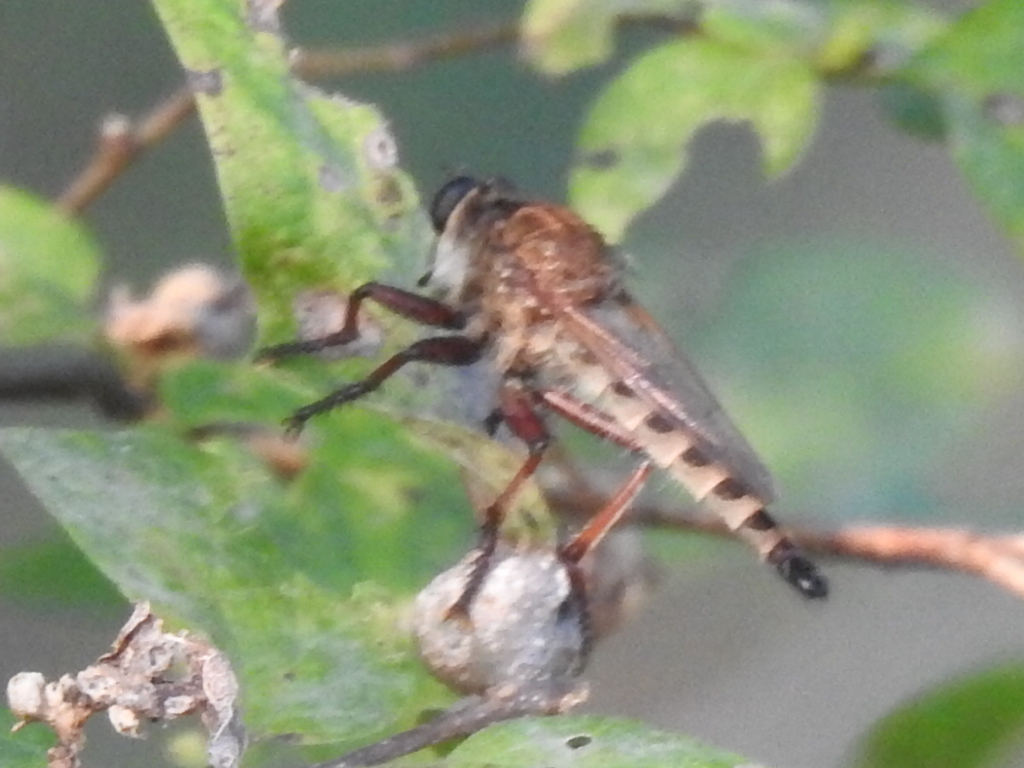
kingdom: Animalia
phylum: Arthropoda
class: Insecta
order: Diptera
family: Asilidae
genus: Promachus
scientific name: Promachus hinei
